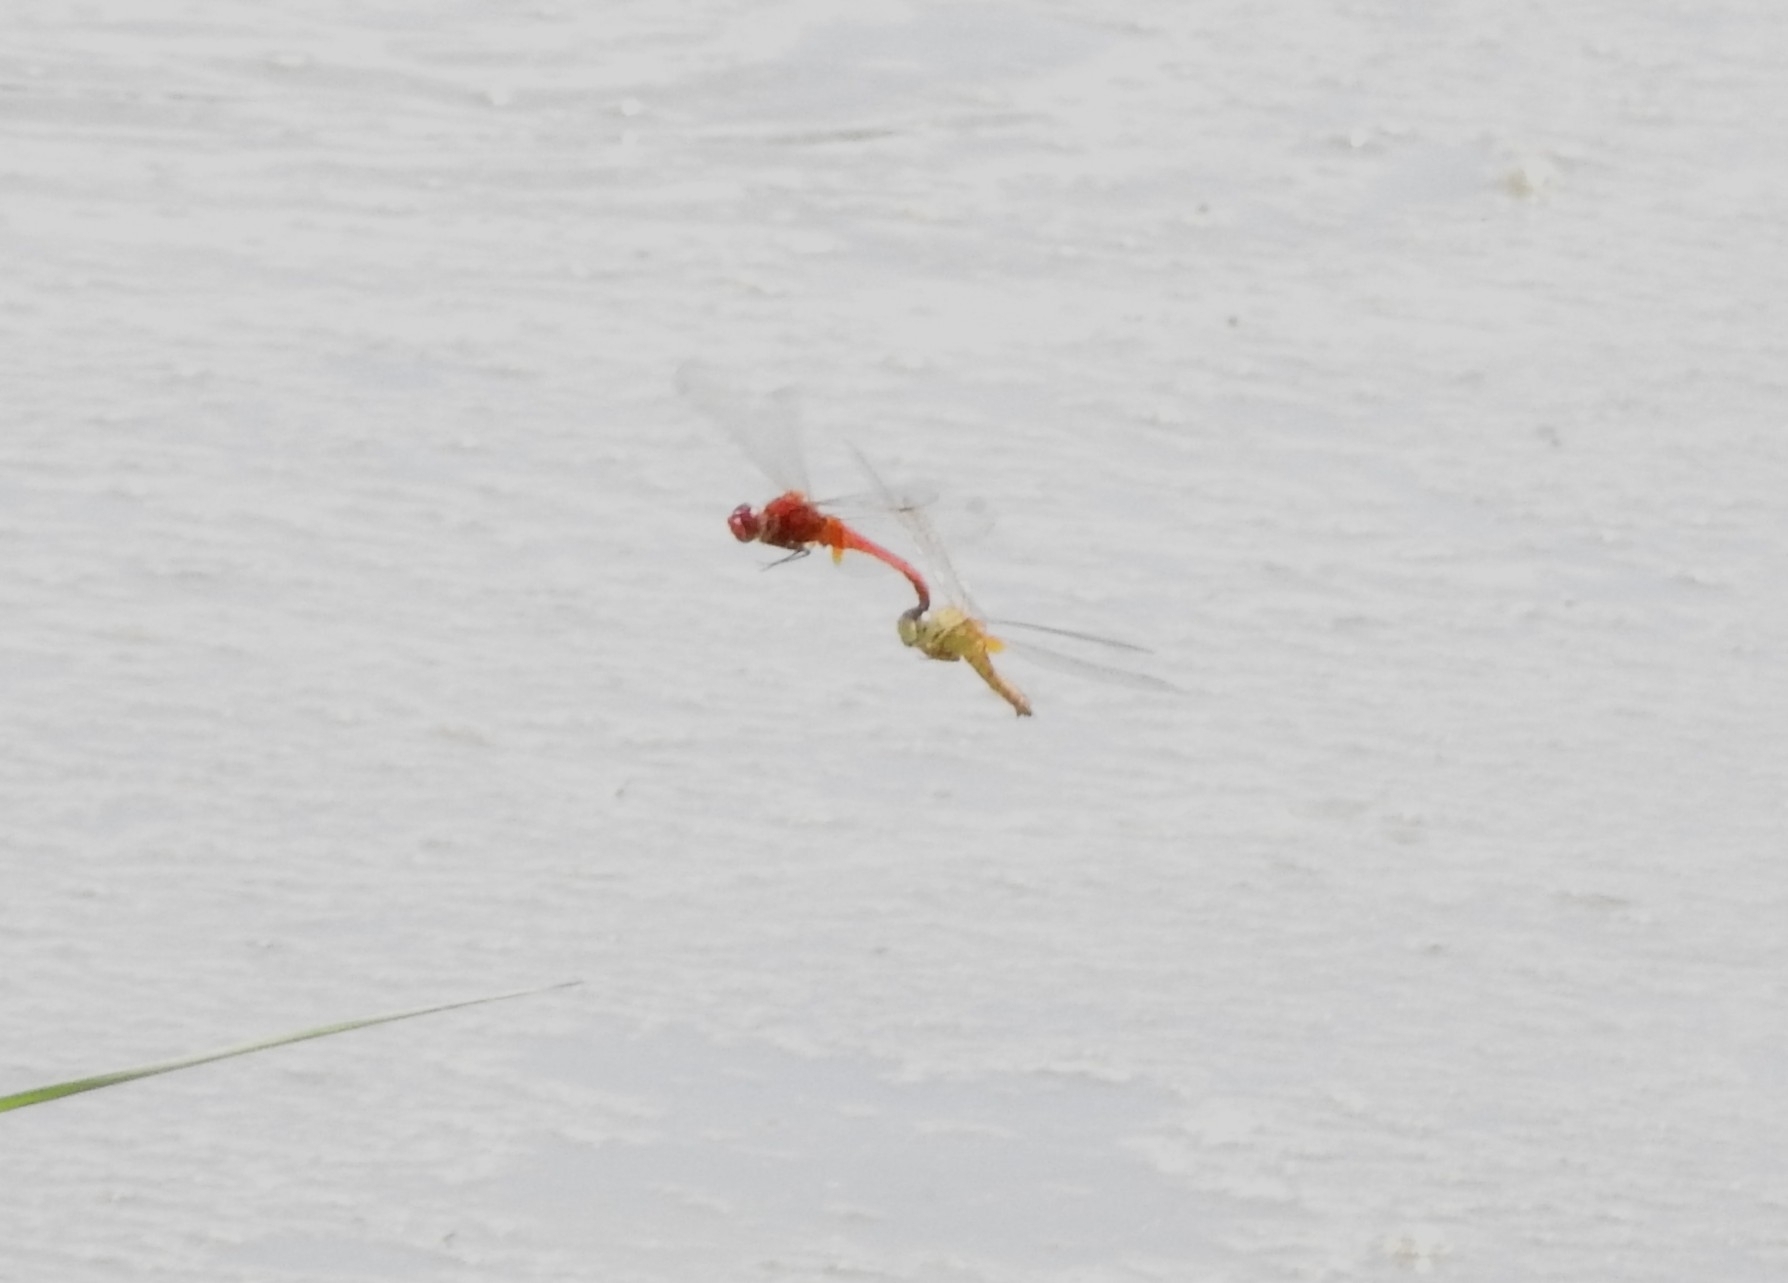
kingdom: Animalia
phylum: Arthropoda
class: Insecta
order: Odonata
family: Libellulidae
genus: Crocothemis
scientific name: Crocothemis servilia
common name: Scarlet skimmer
